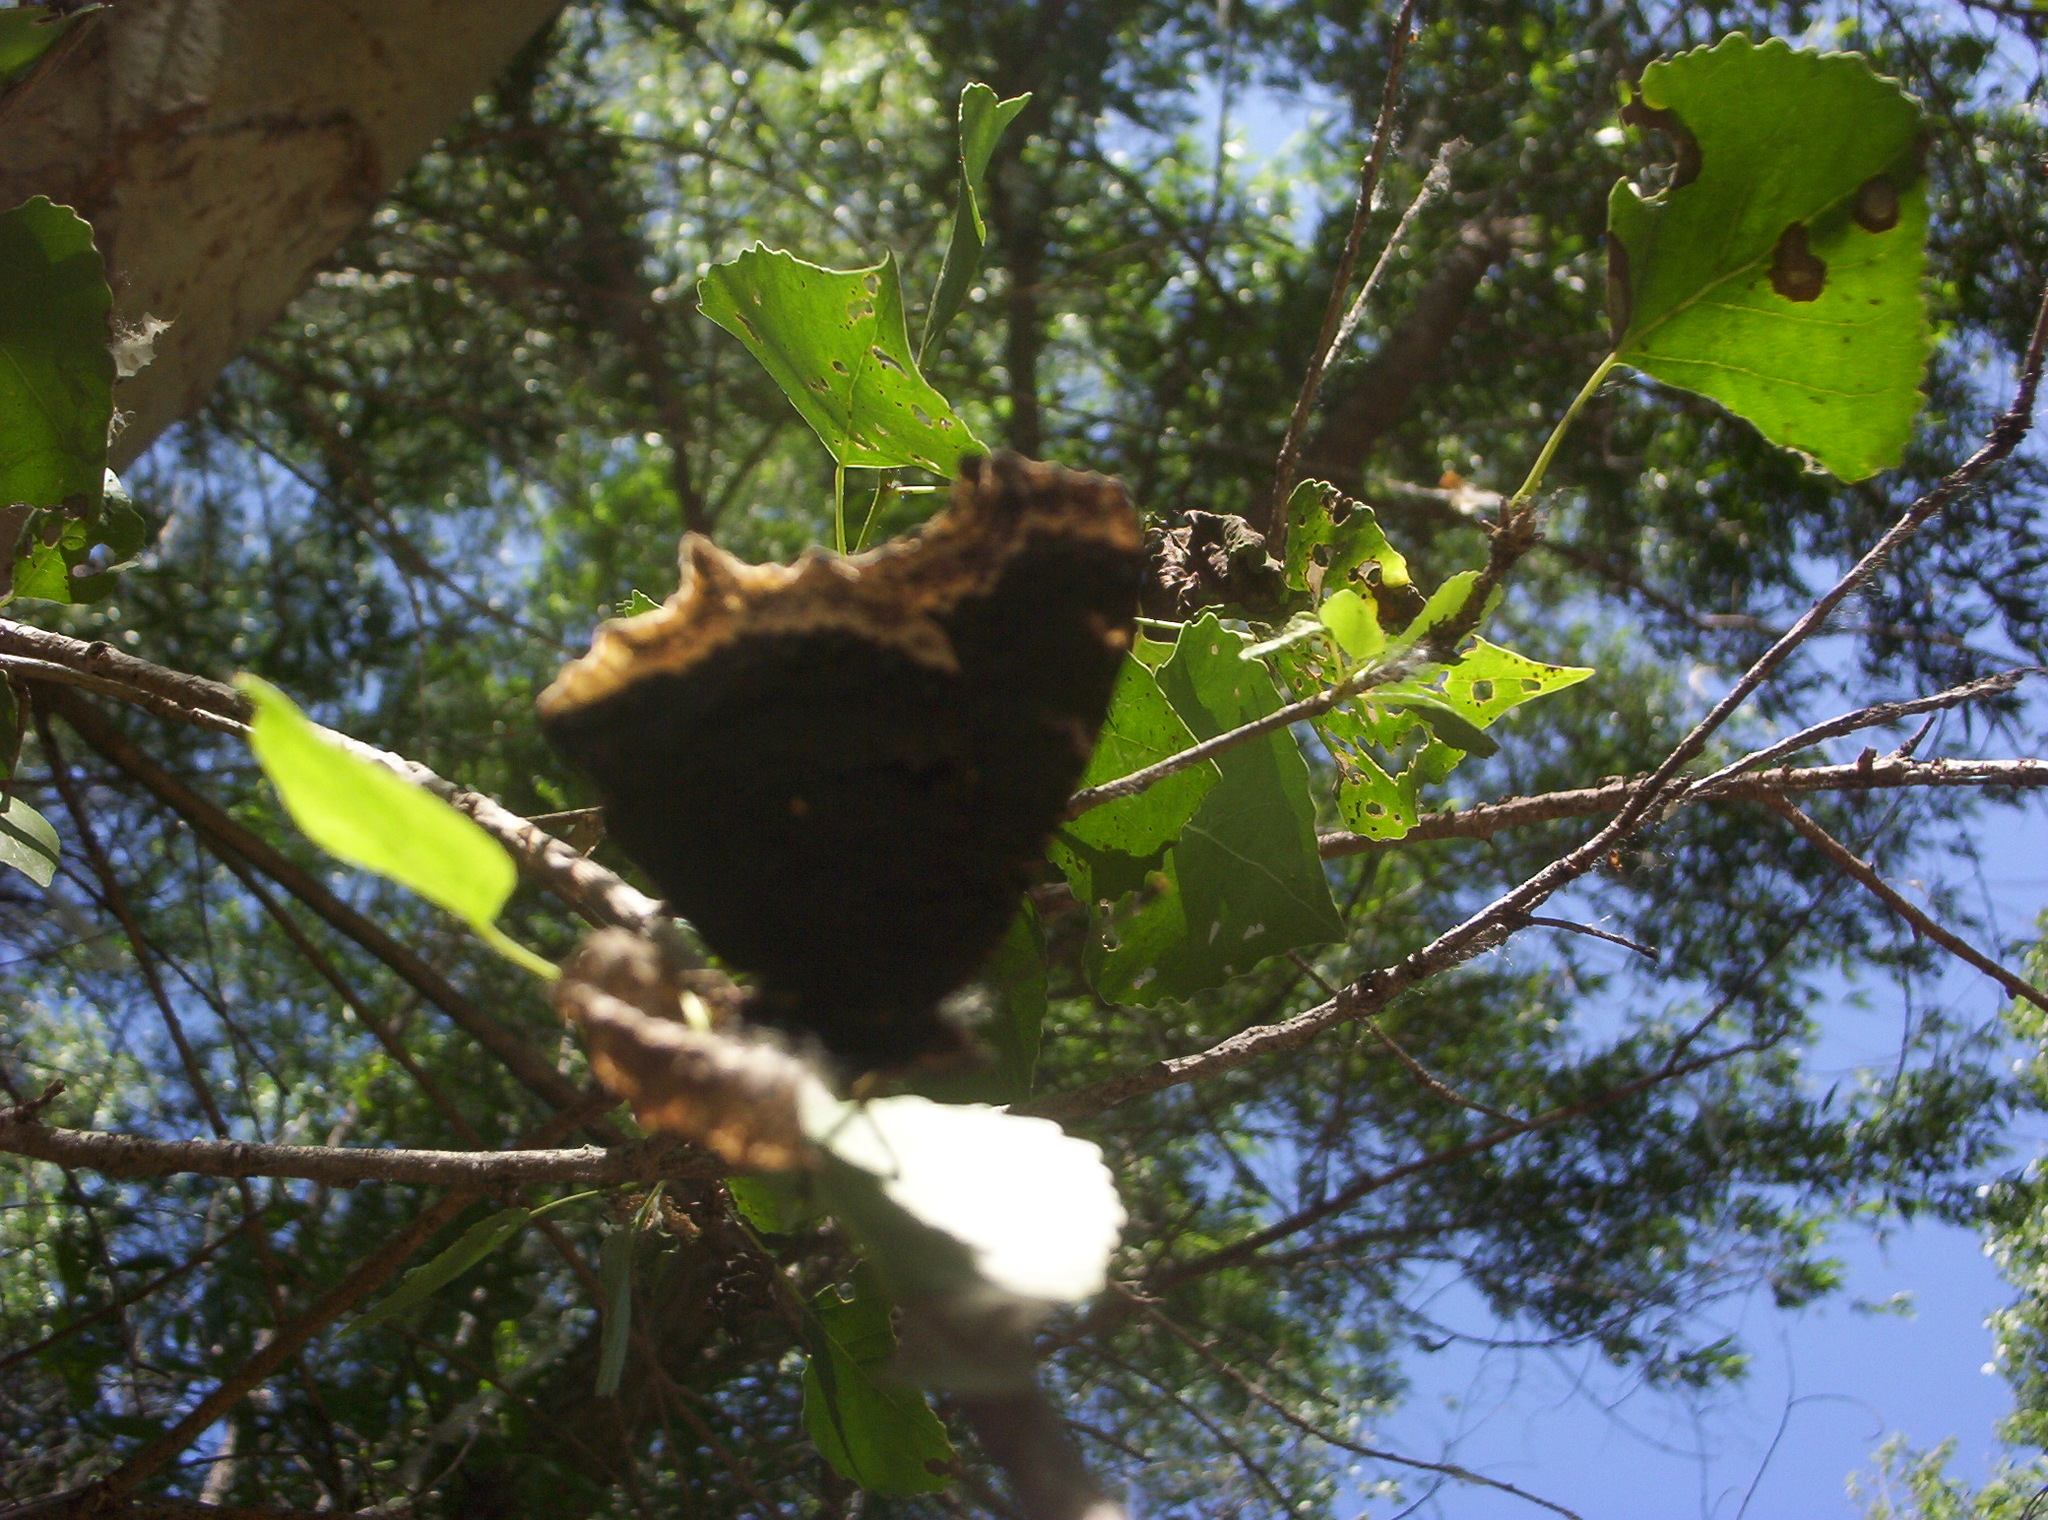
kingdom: Animalia
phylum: Arthropoda
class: Insecta
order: Lepidoptera
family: Nymphalidae
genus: Nymphalis
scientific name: Nymphalis antiopa
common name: Camberwell beauty
